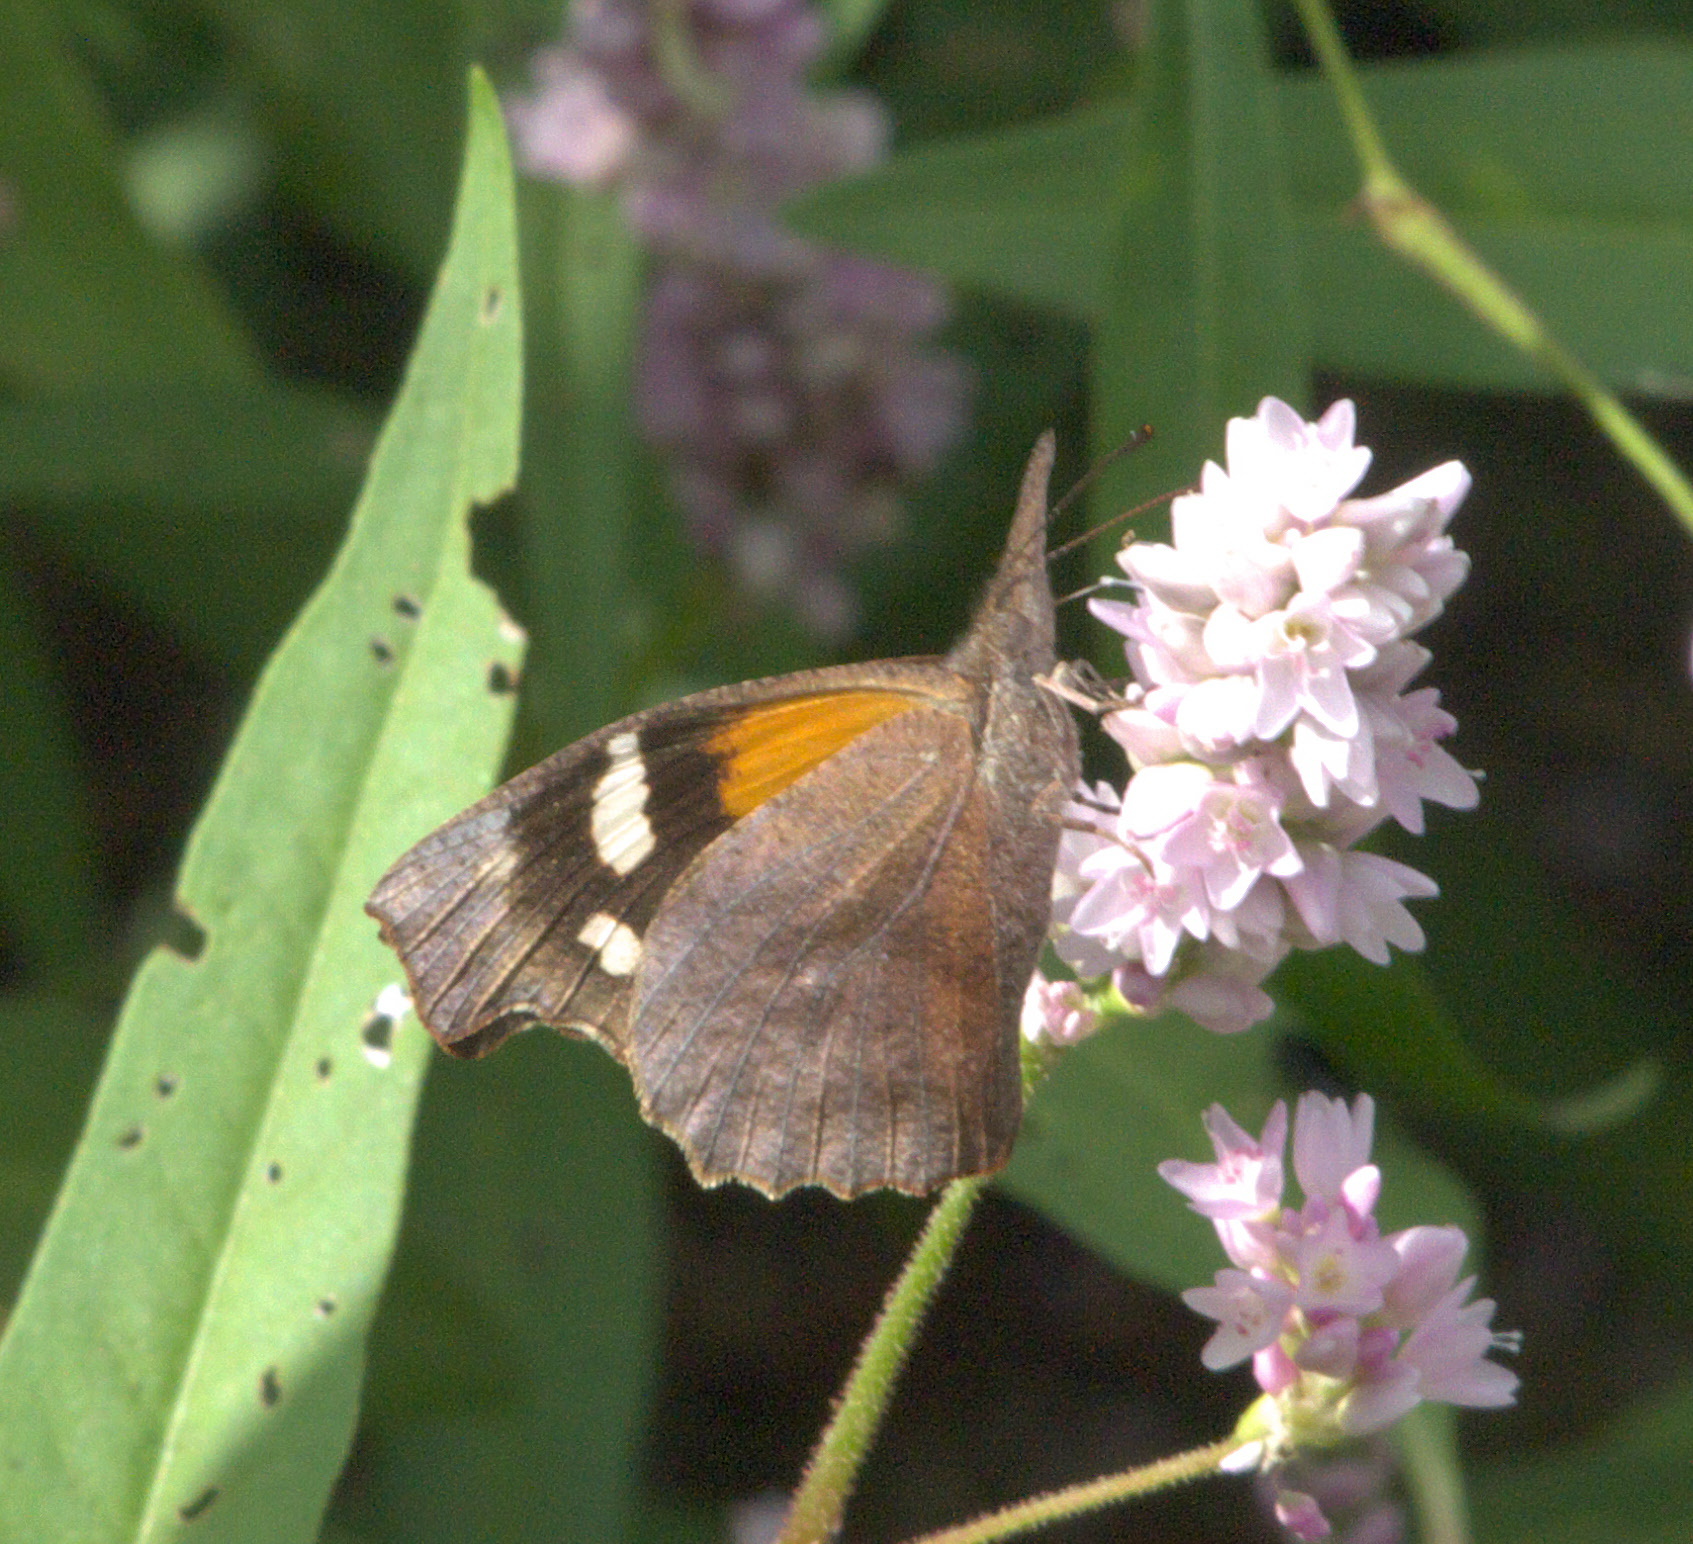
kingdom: Animalia
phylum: Arthropoda
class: Insecta
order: Lepidoptera
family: Nymphalidae
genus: Libytheana
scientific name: Libytheana carinenta
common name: American snout
